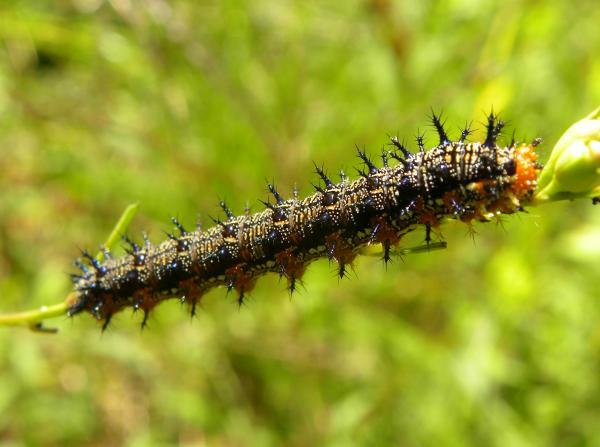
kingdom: Animalia
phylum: Arthropoda
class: Insecta
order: Lepidoptera
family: Nymphalidae
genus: Junonia
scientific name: Junonia coenia
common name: Common buckeye
